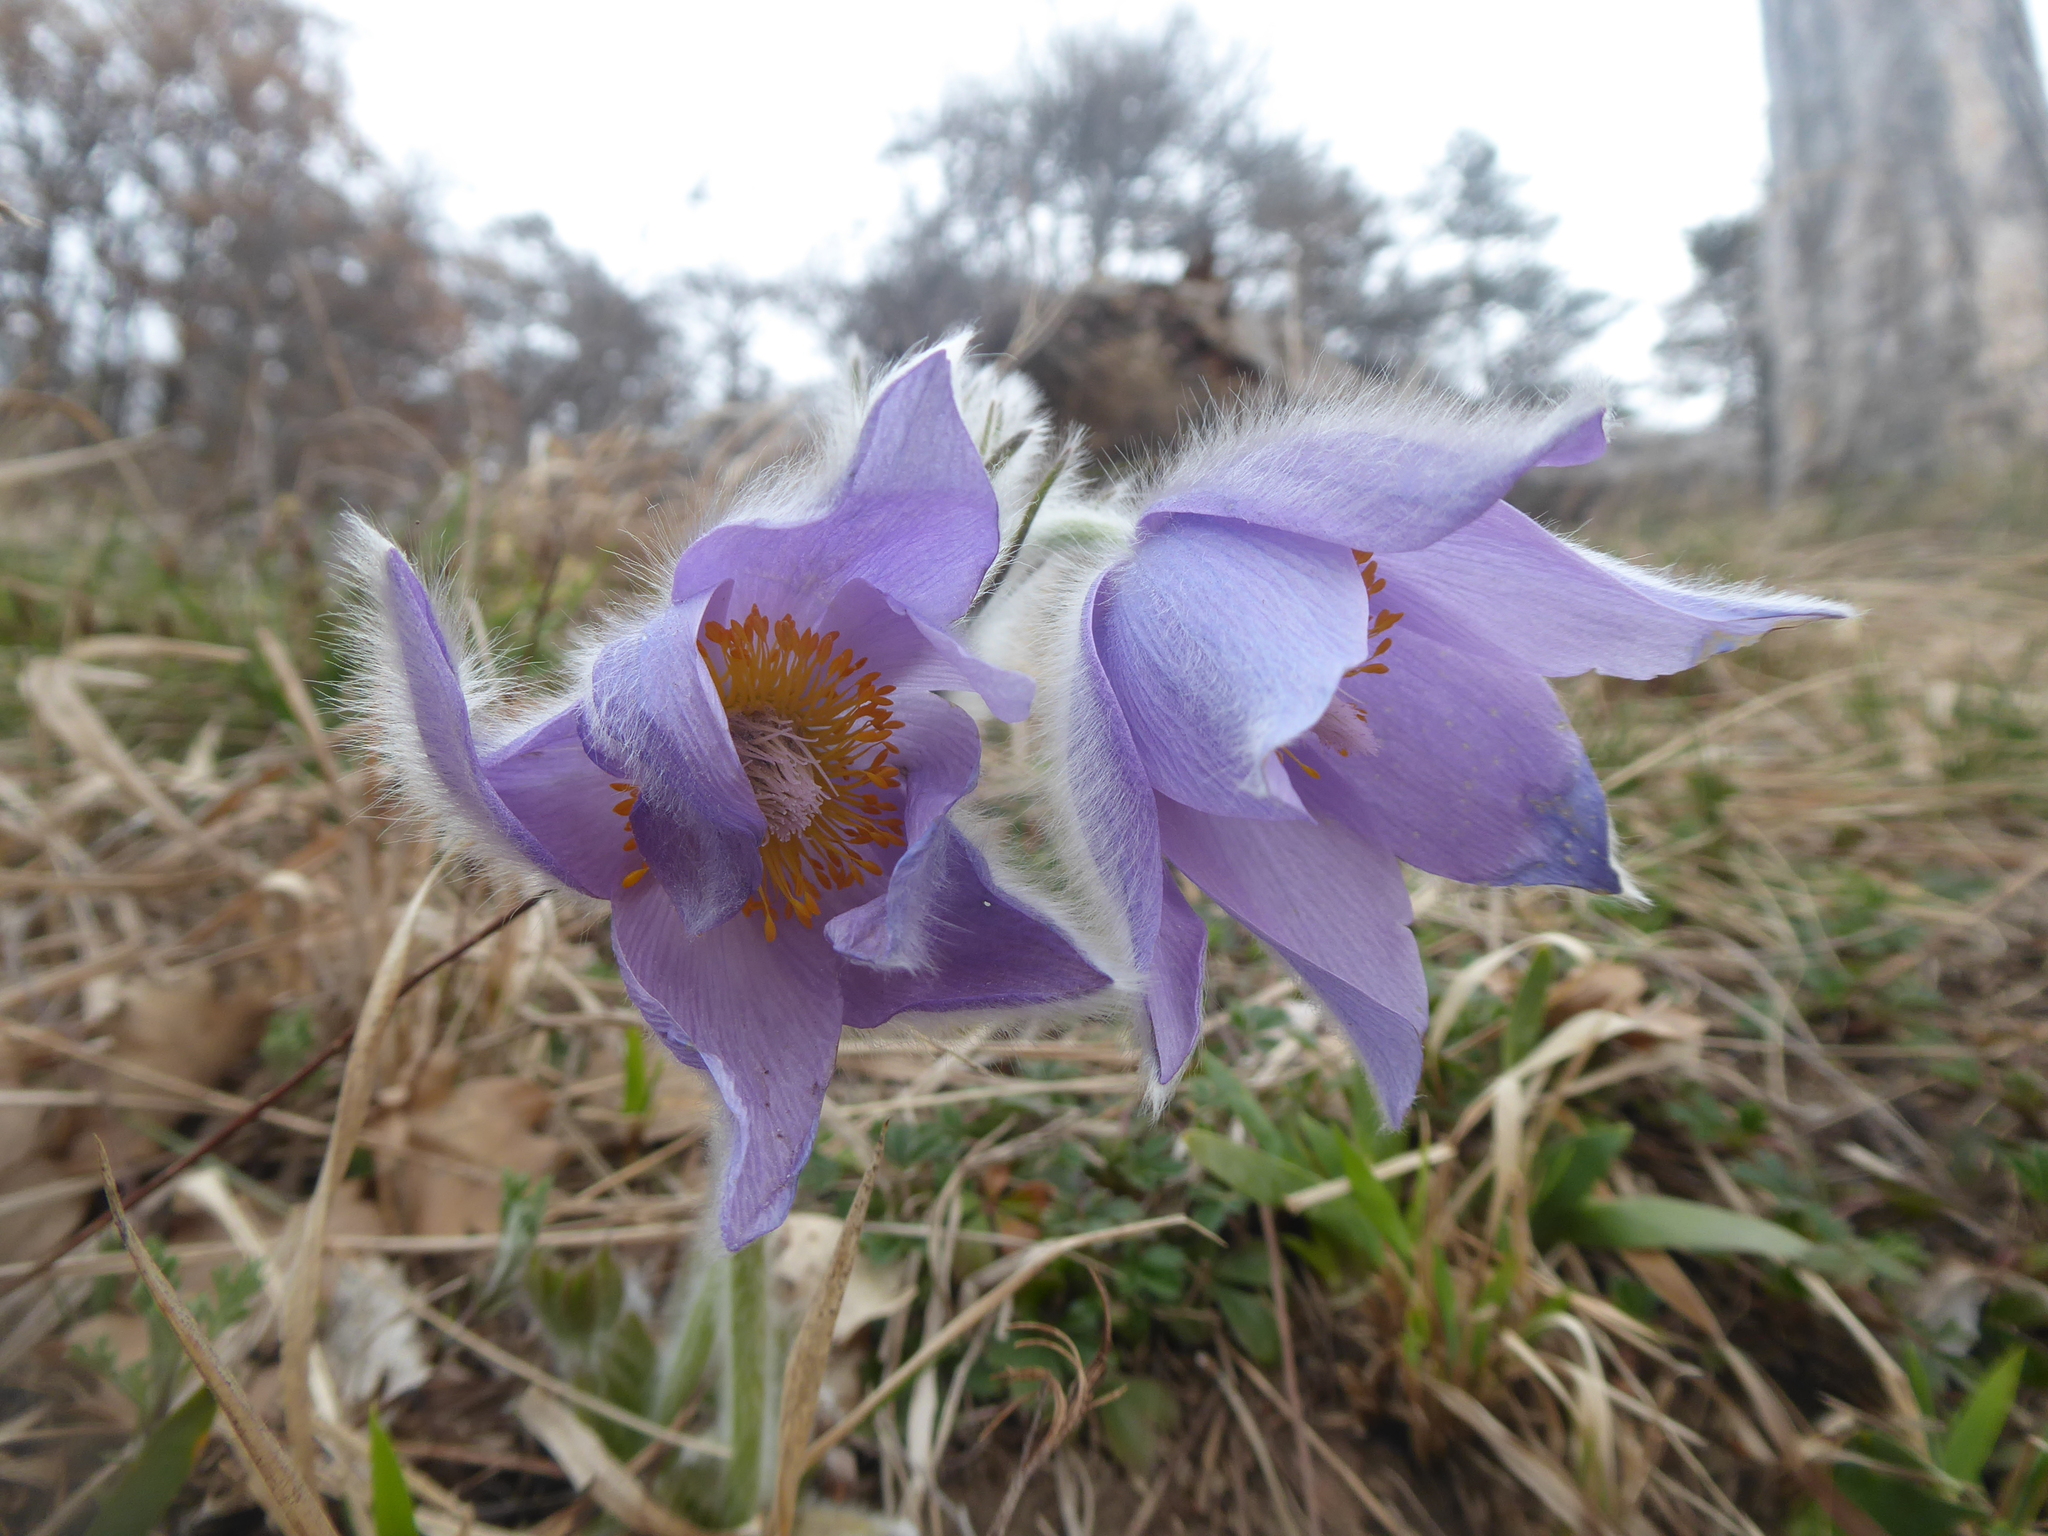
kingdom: Plantae
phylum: Tracheophyta
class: Magnoliopsida
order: Ranunculales
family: Ranunculaceae
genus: Pulsatilla
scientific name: Pulsatilla grandis
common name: Greater pasque flower
